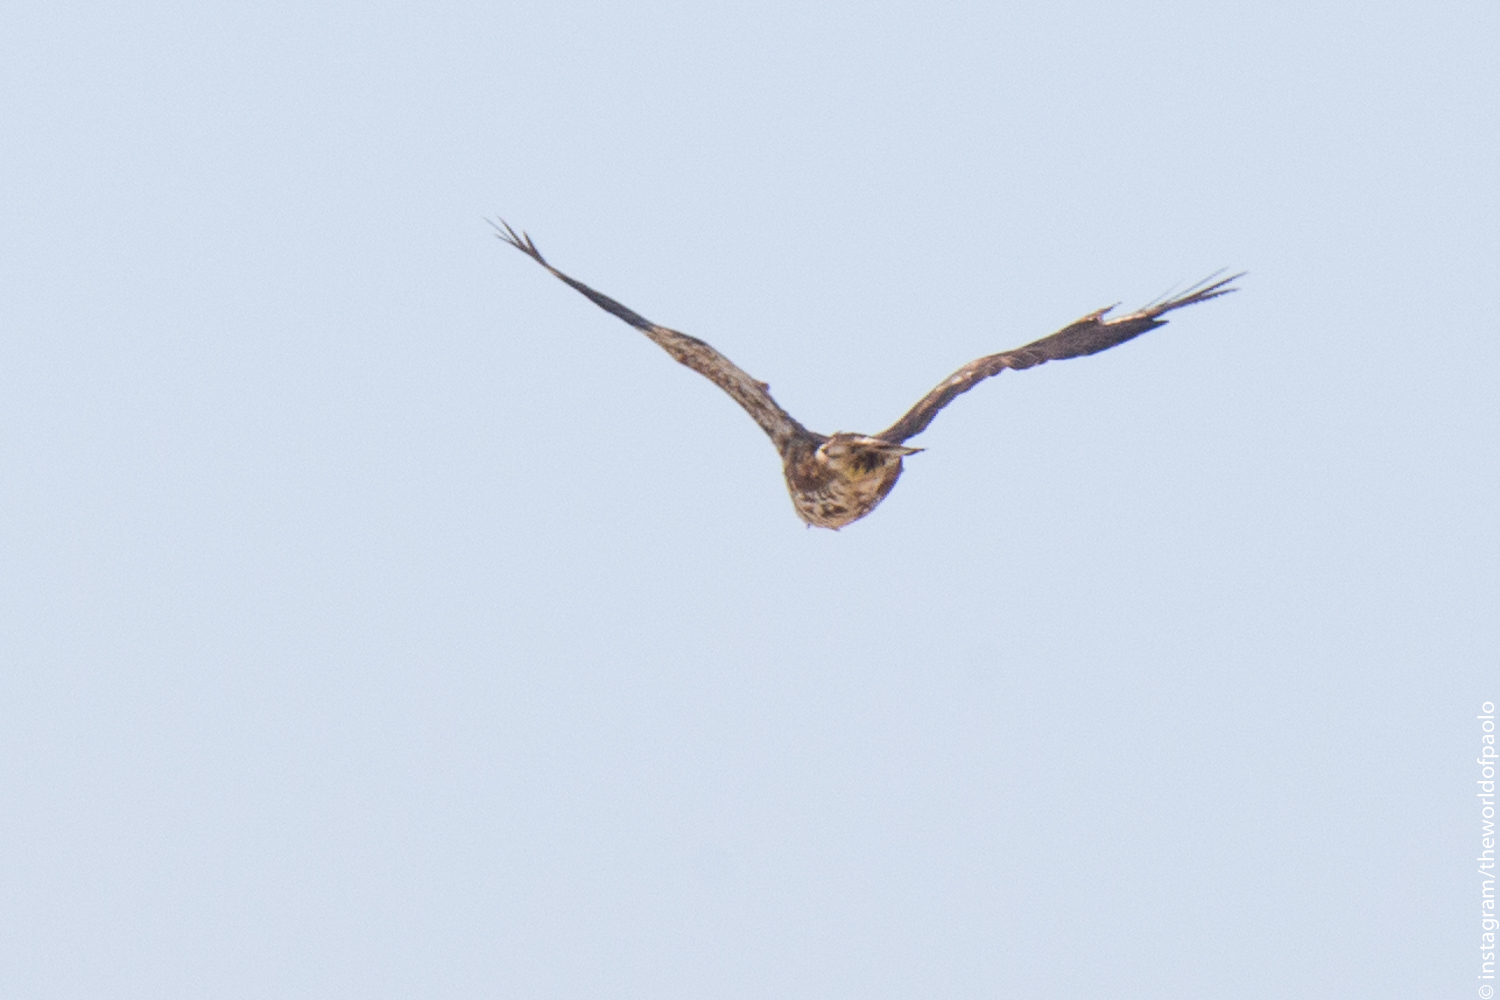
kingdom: Animalia
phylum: Chordata
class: Aves
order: Accipitriformes
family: Accipitridae
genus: Buteo
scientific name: Buteo buteo
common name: Common buzzard
